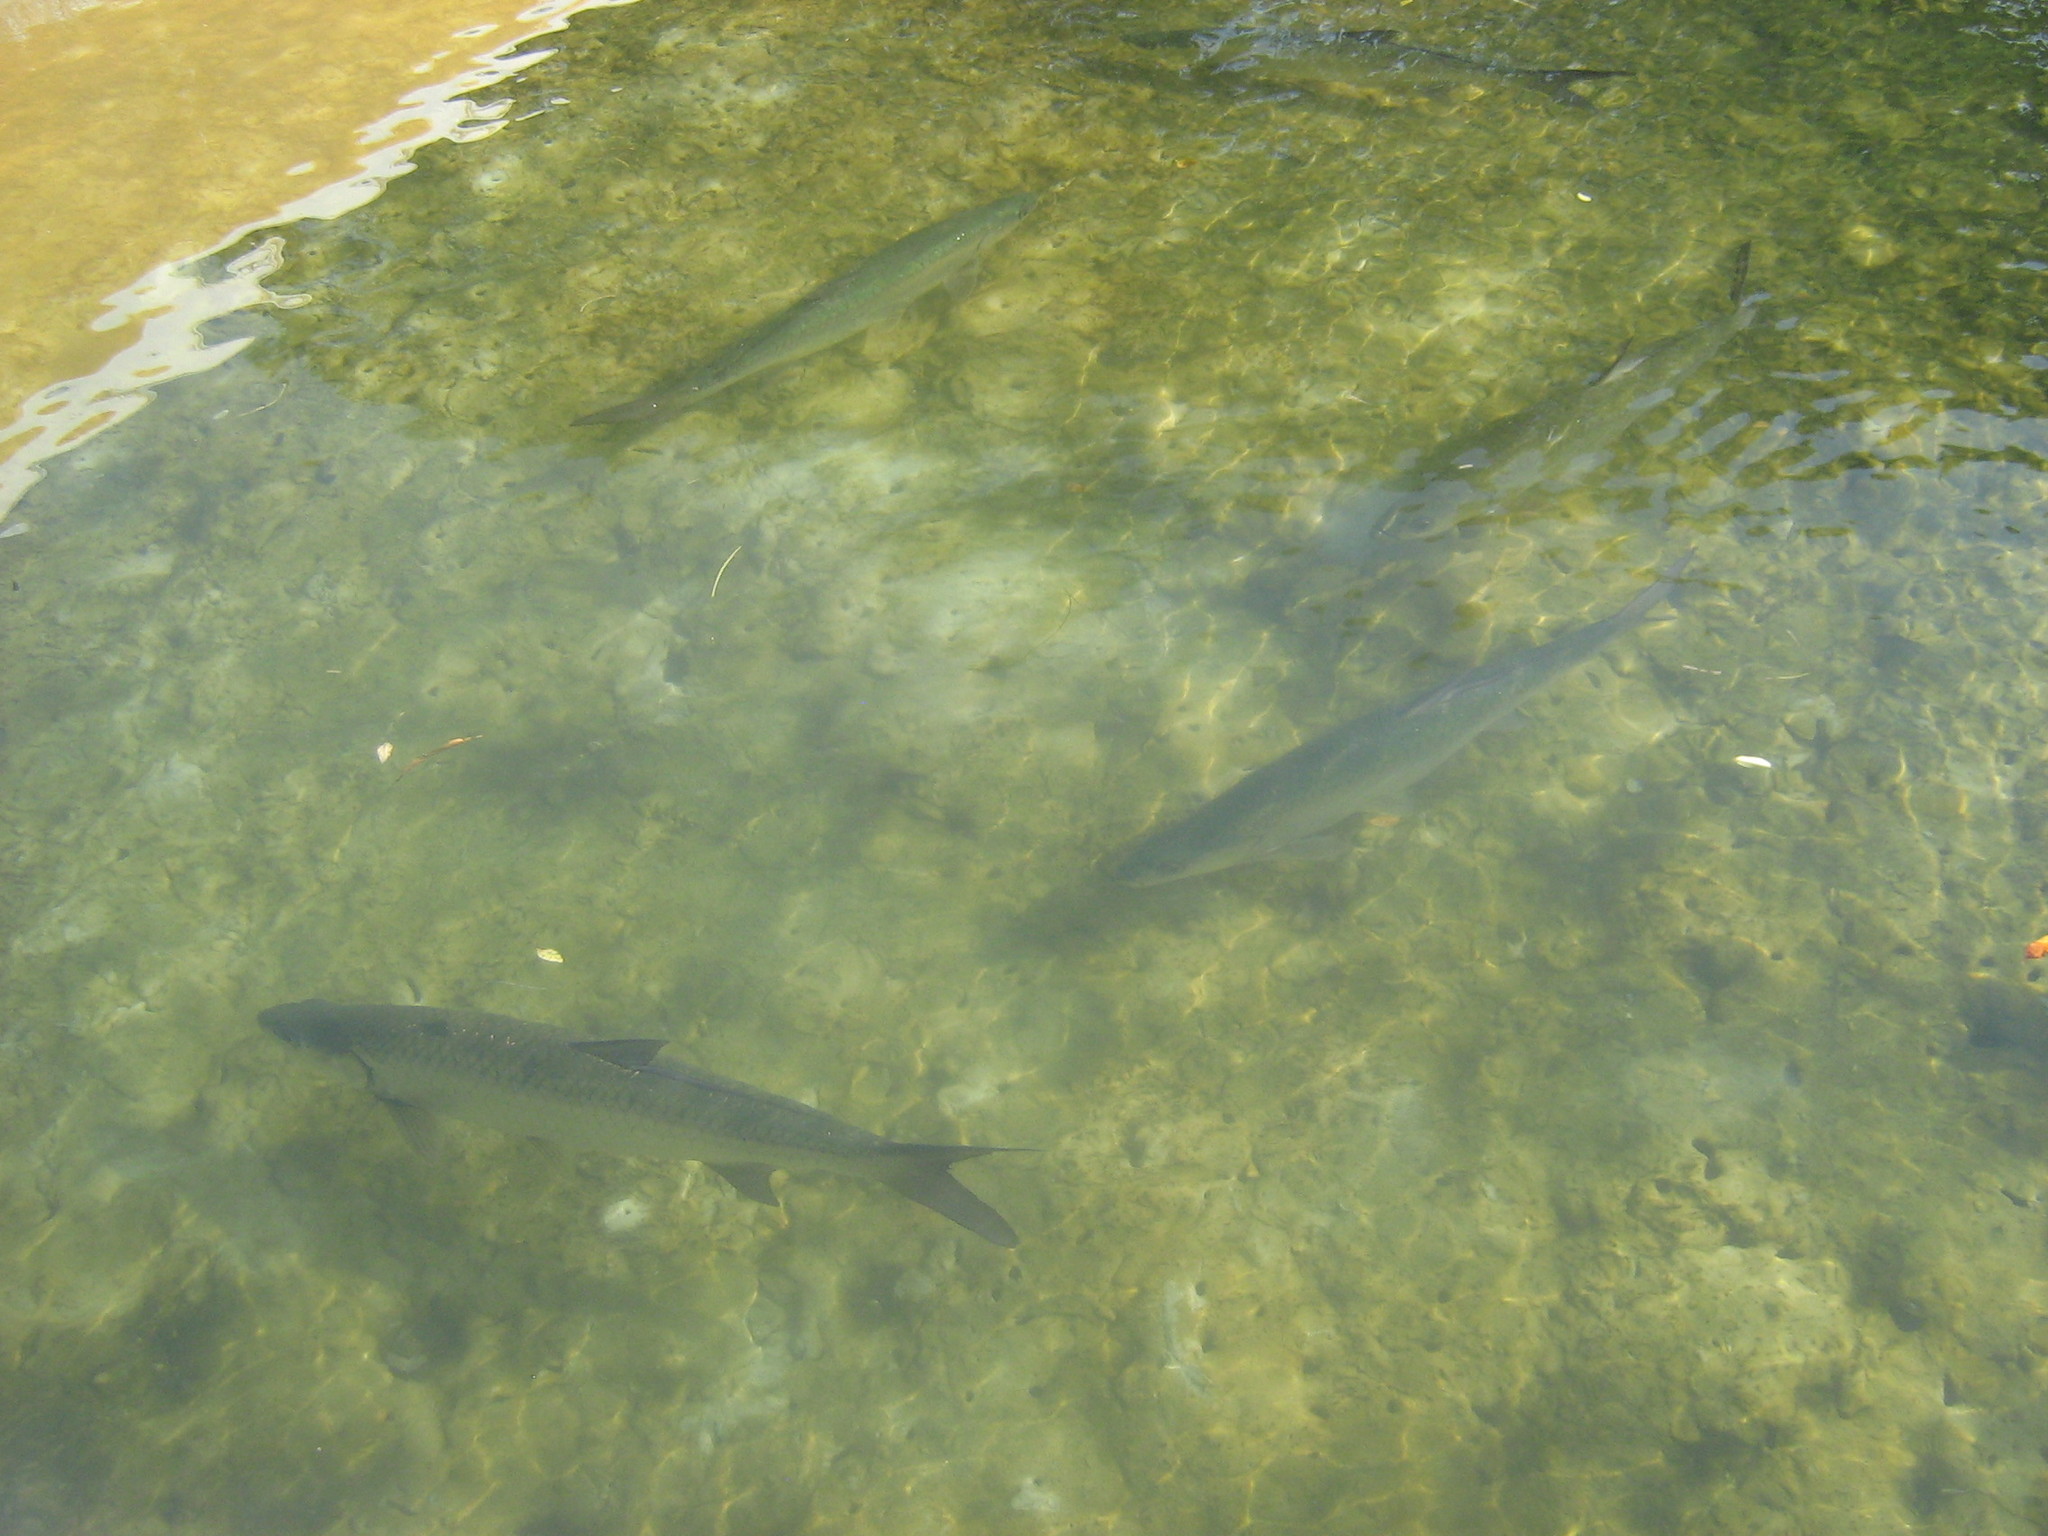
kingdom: Animalia
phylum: Chordata
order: Elopiformes
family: Megalopidae
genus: Megalops
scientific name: Megalops atlanticus
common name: Tarpon
